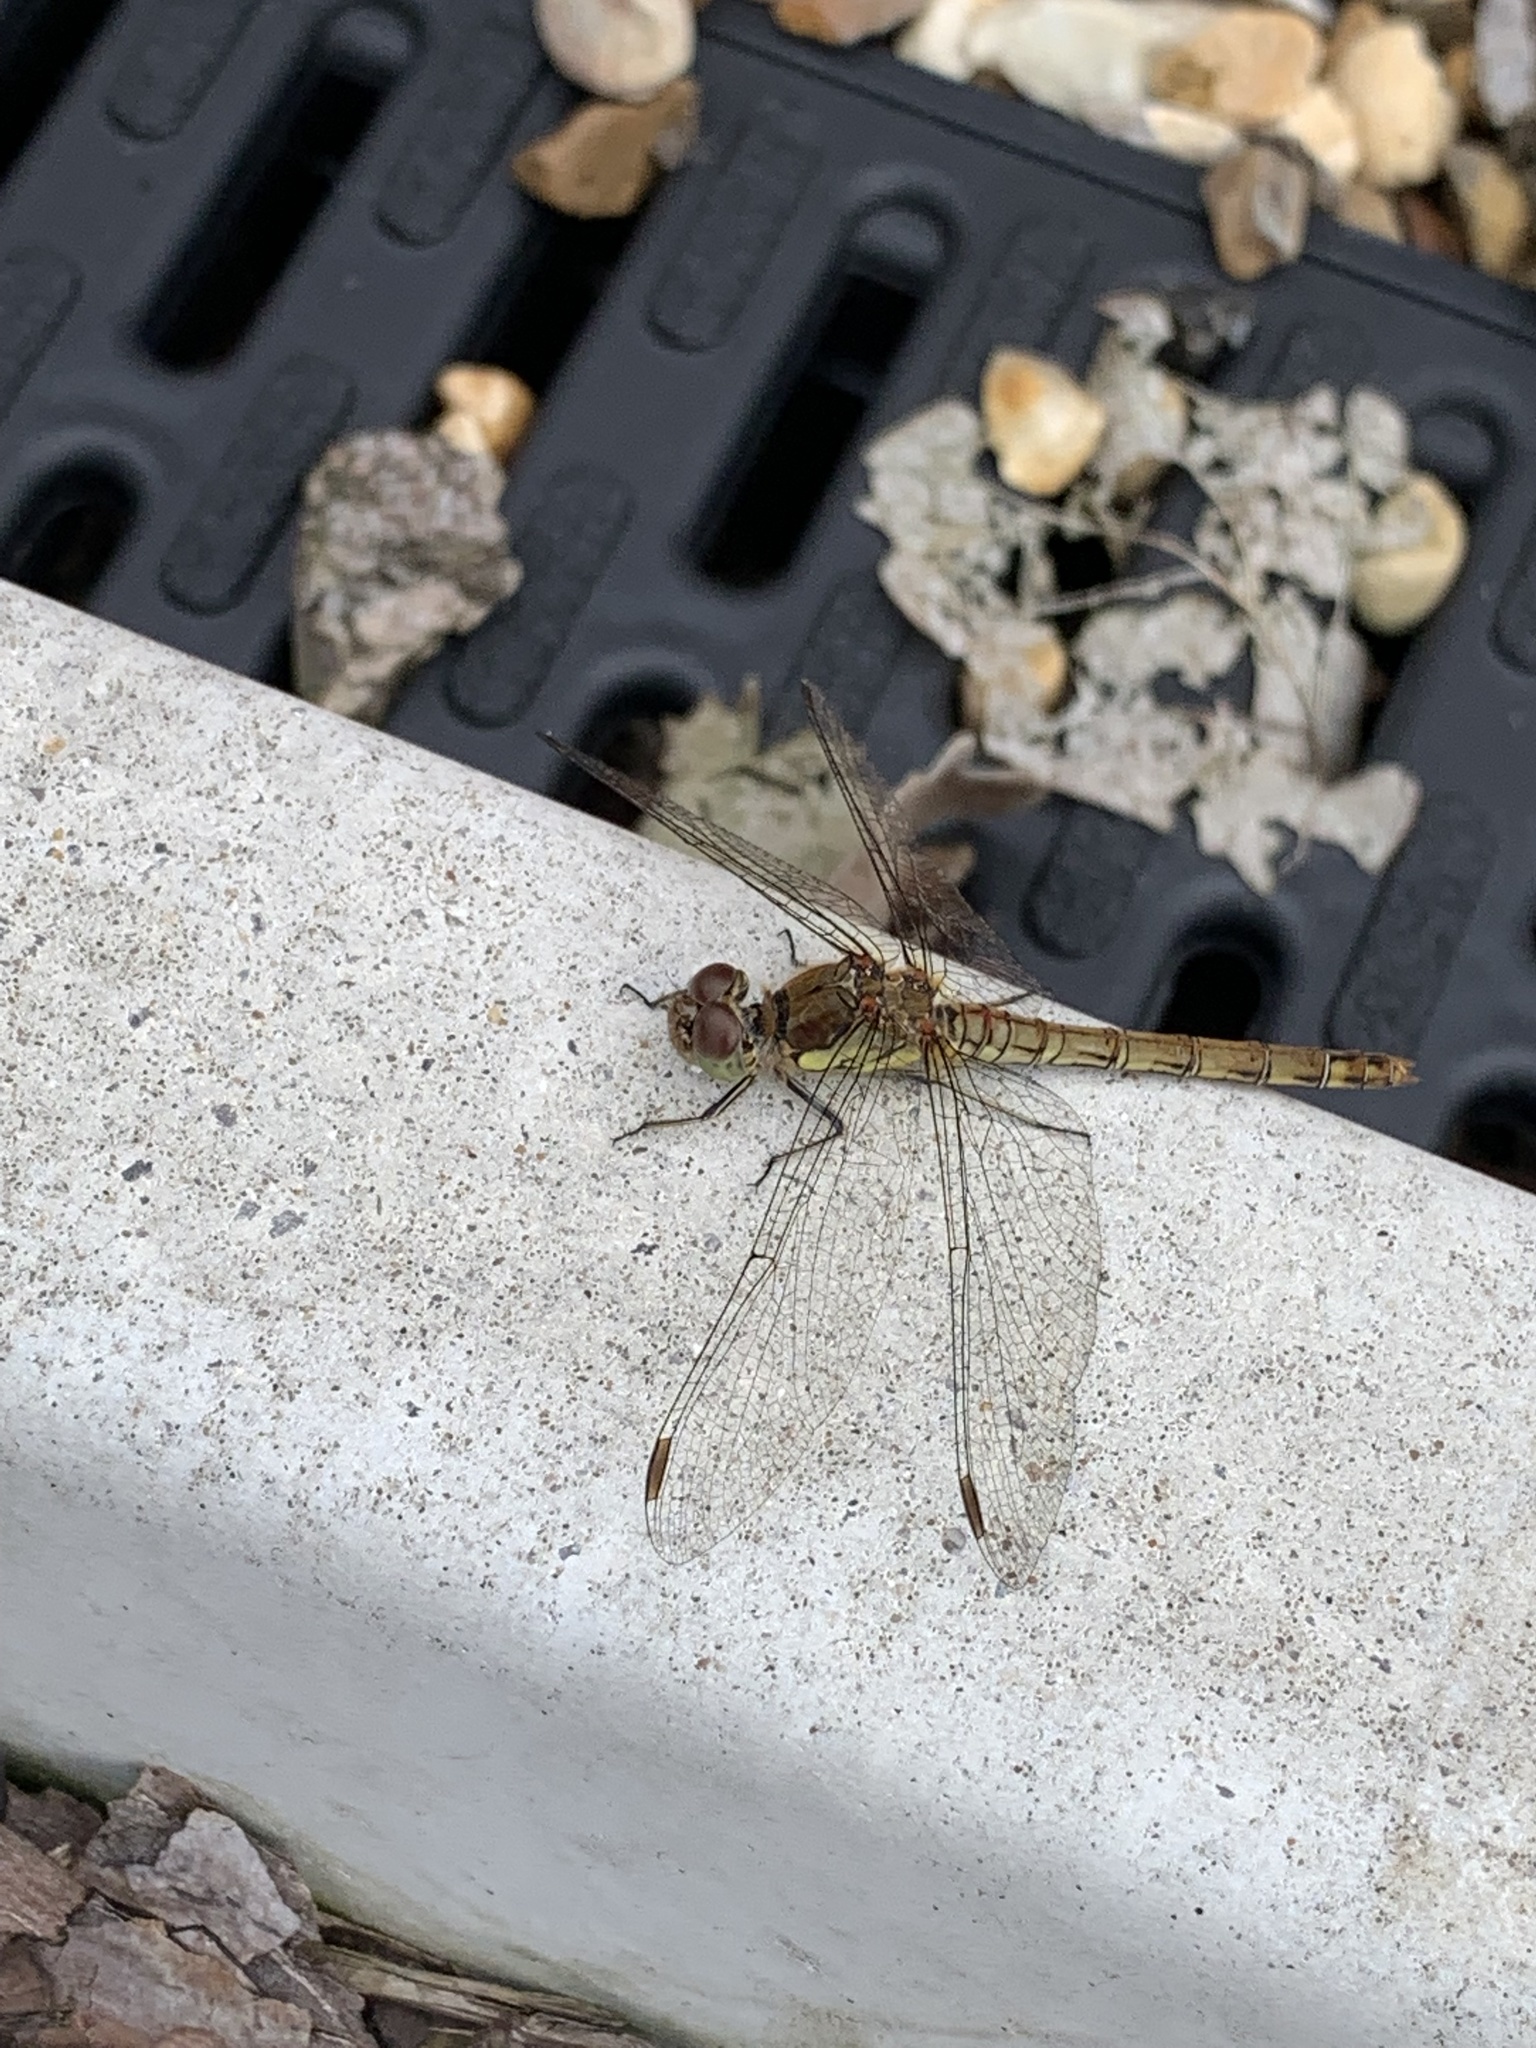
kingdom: Animalia
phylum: Arthropoda
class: Insecta
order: Odonata
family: Libellulidae
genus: Sympetrum
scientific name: Sympetrum striolatum
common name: Common darter
